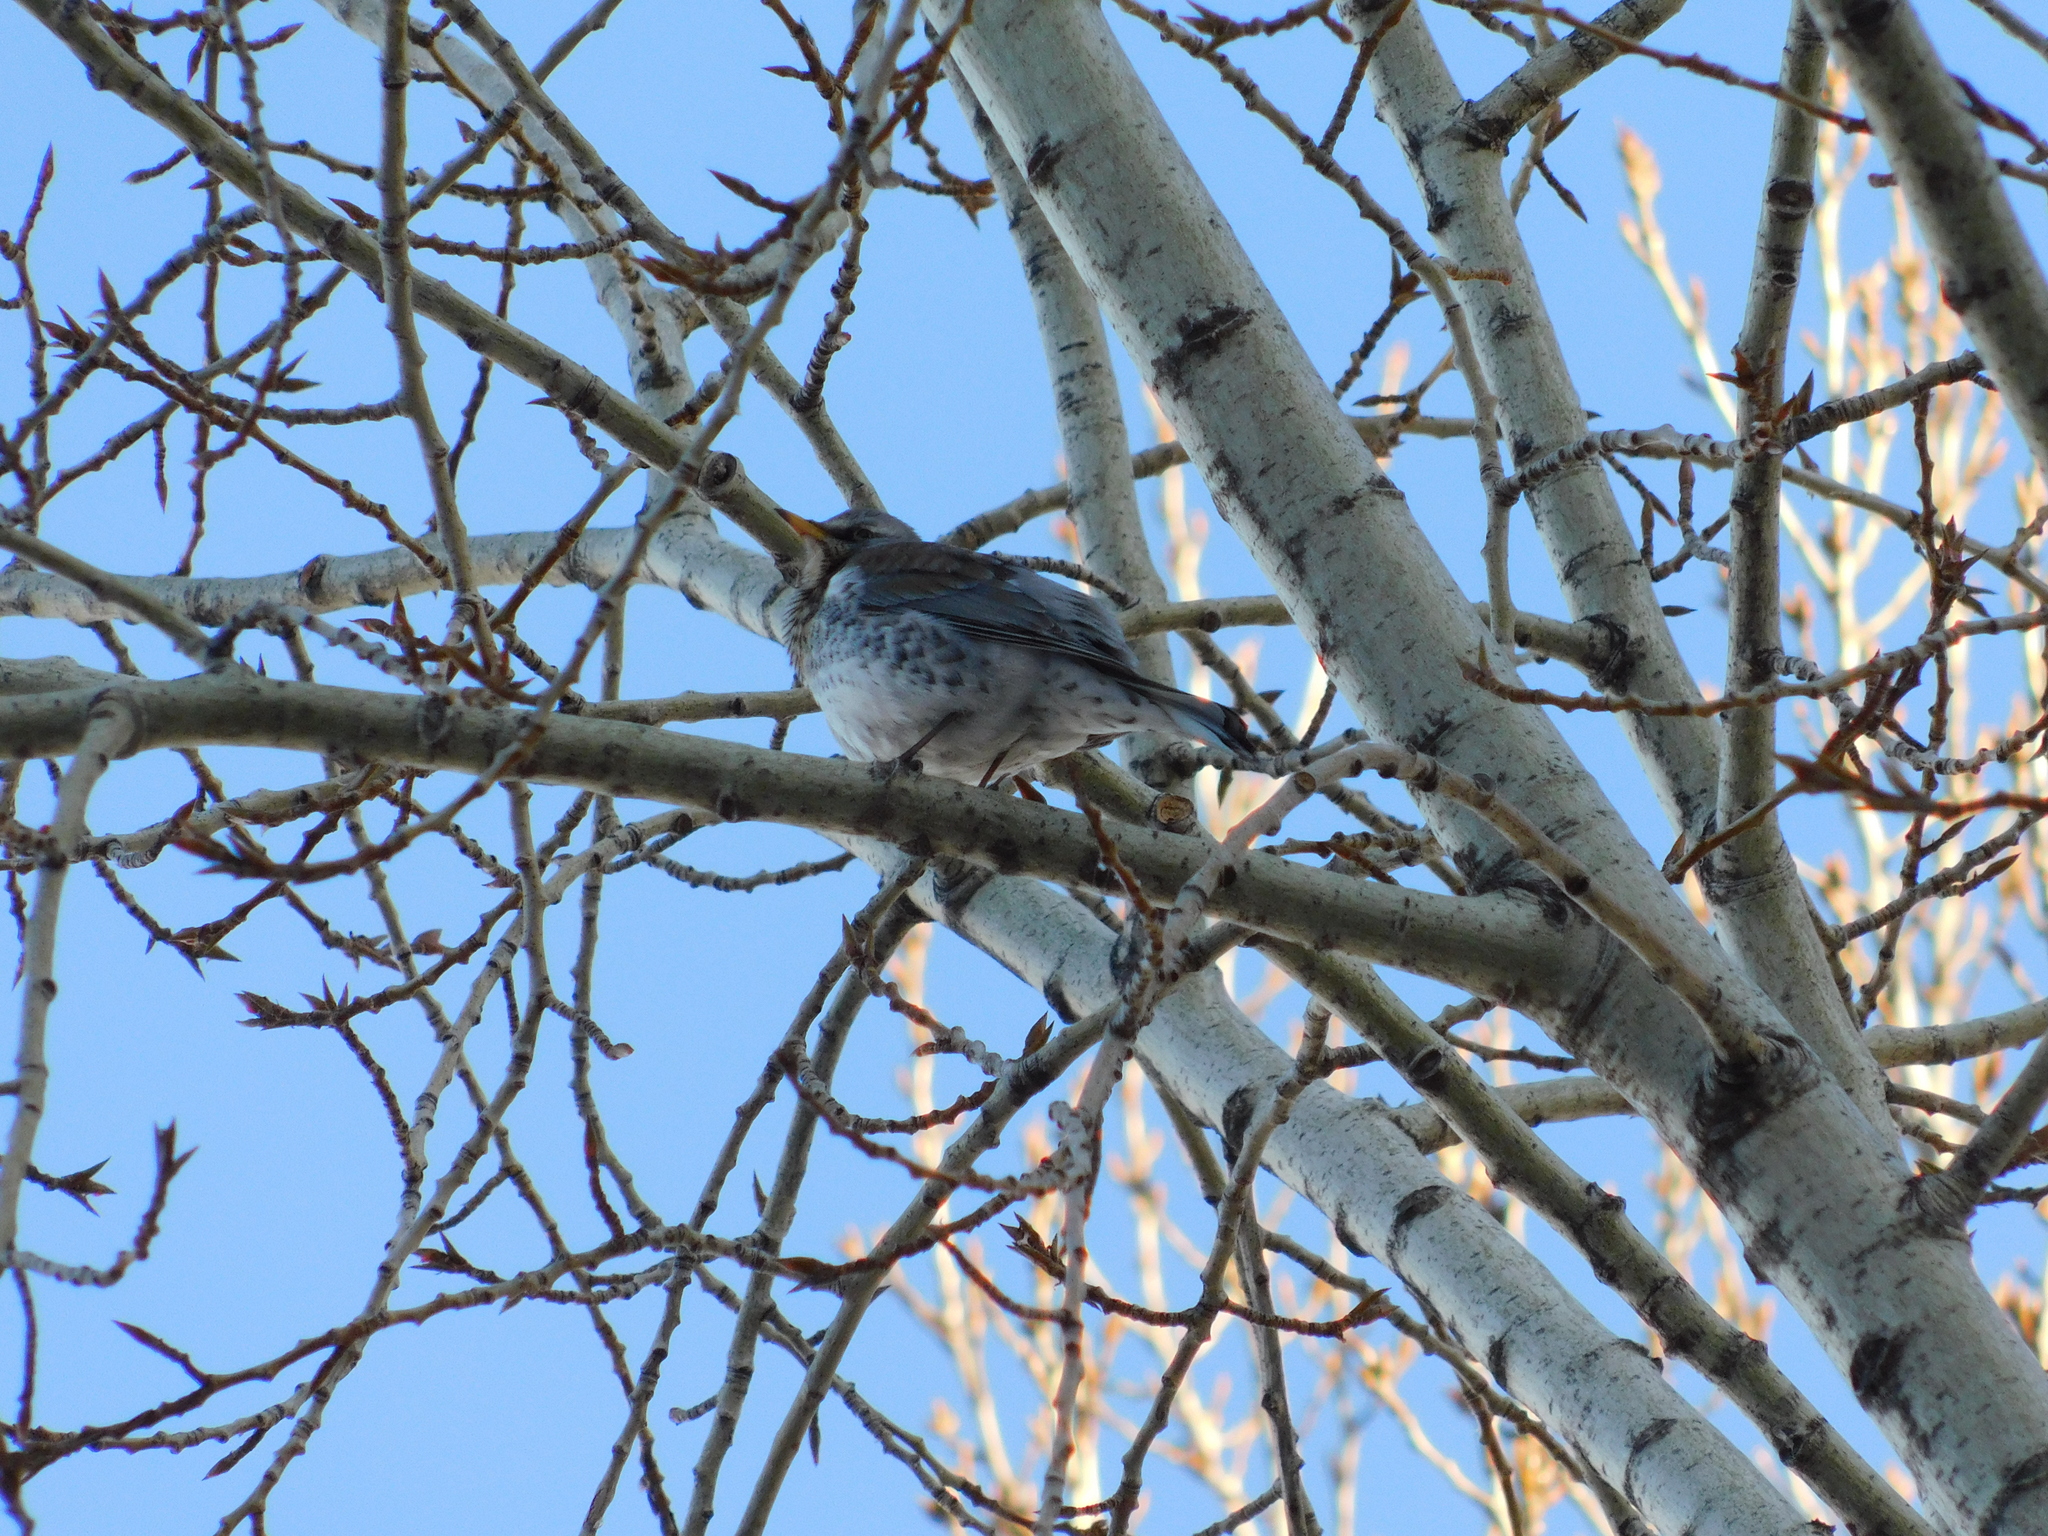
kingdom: Animalia
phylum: Chordata
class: Aves
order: Passeriformes
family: Turdidae
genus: Turdus
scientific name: Turdus pilaris
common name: Fieldfare
